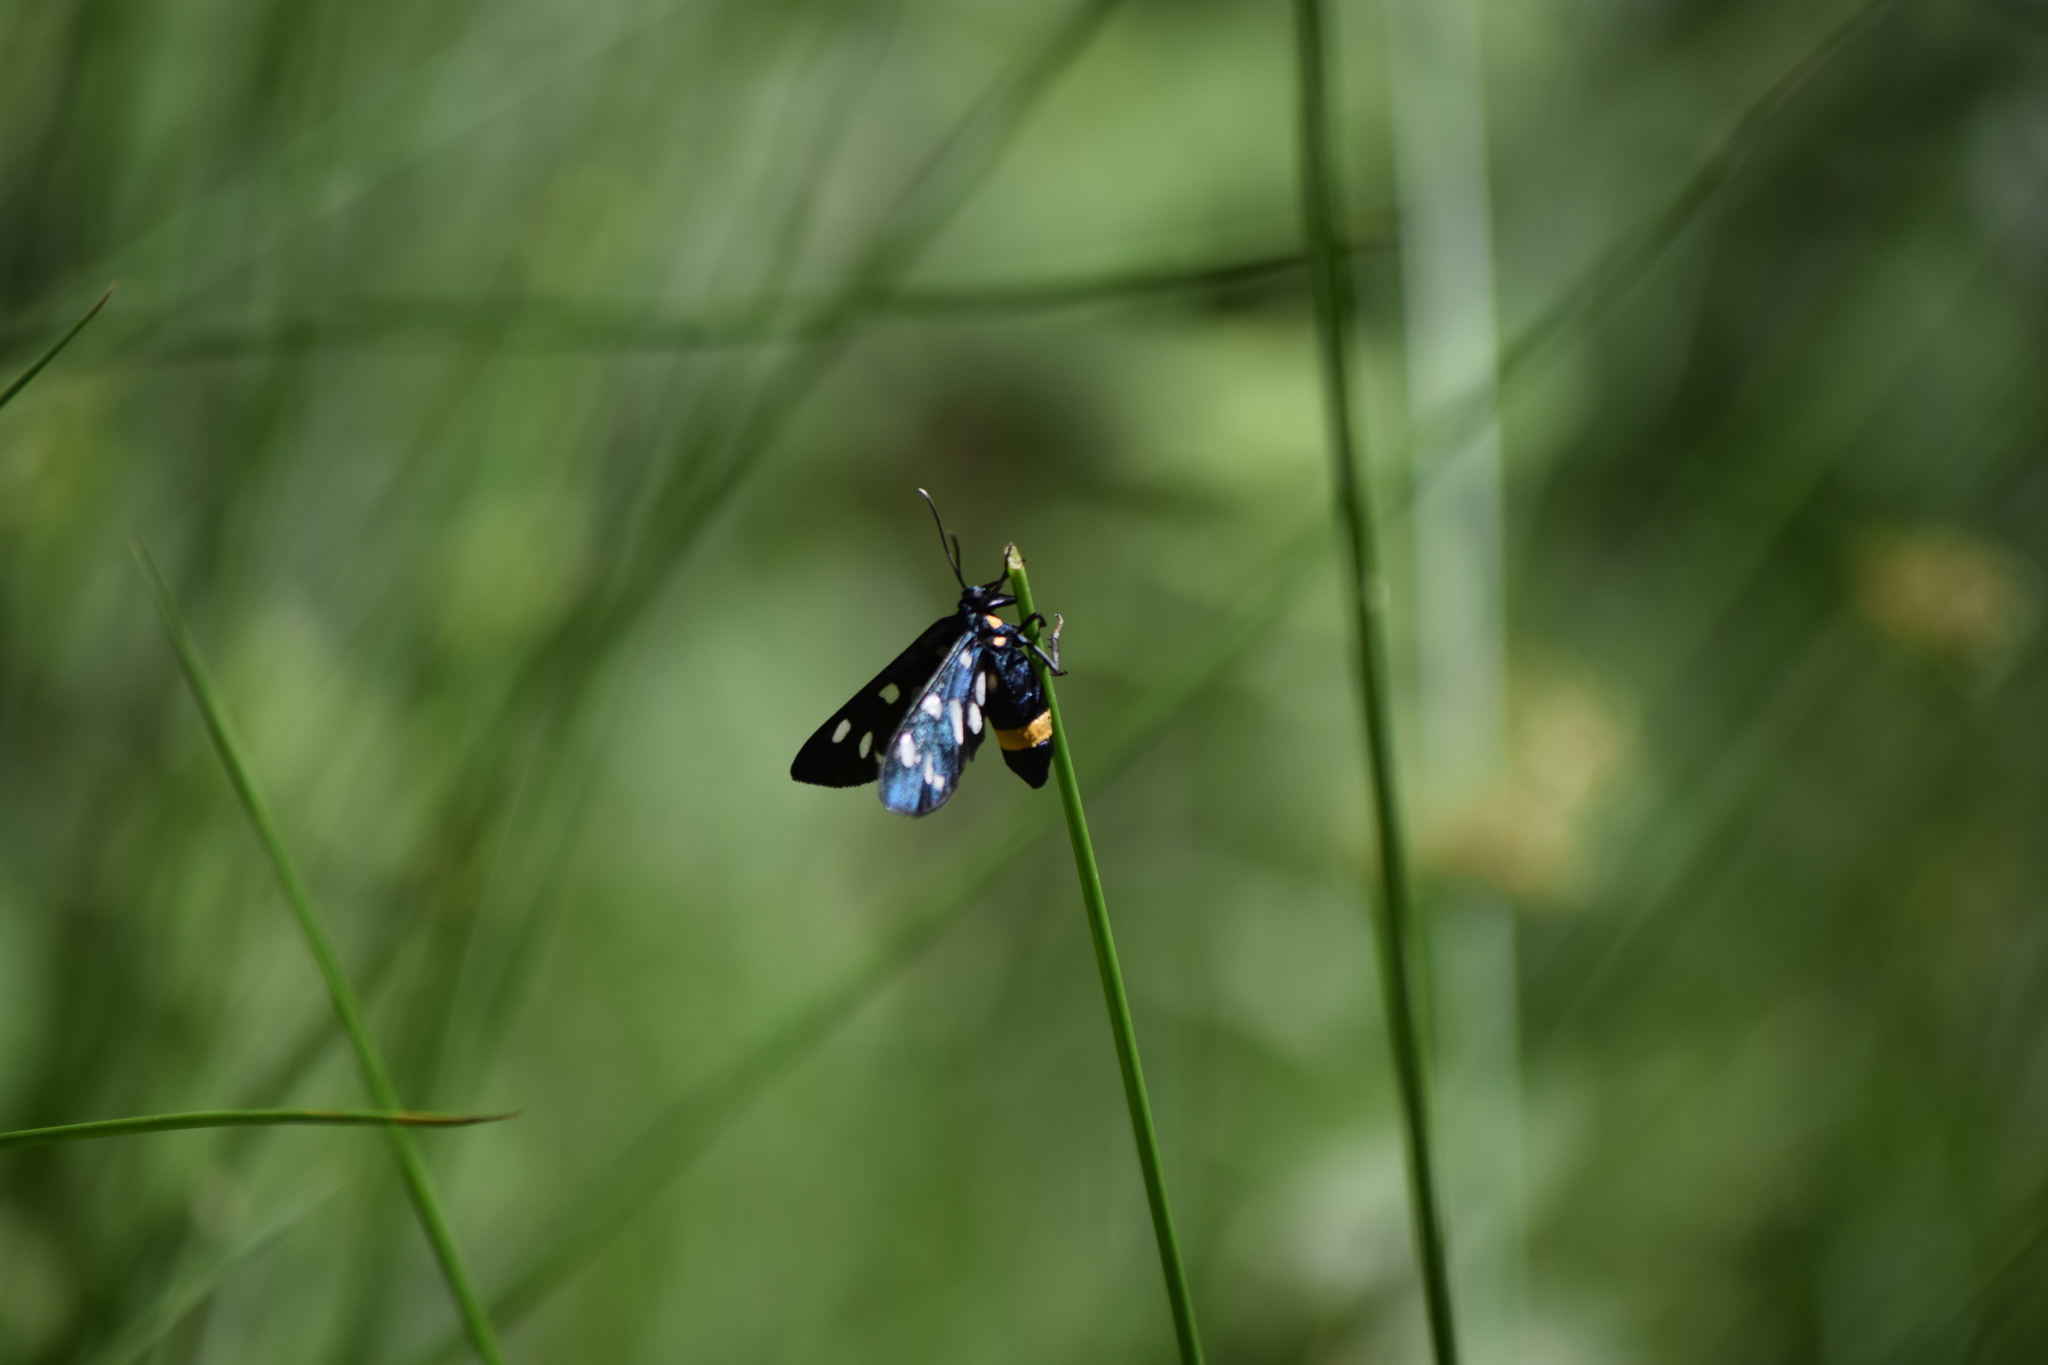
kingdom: Animalia
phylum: Arthropoda
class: Insecta
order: Lepidoptera
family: Erebidae
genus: Amata
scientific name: Amata phegea
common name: Nine-spotted
